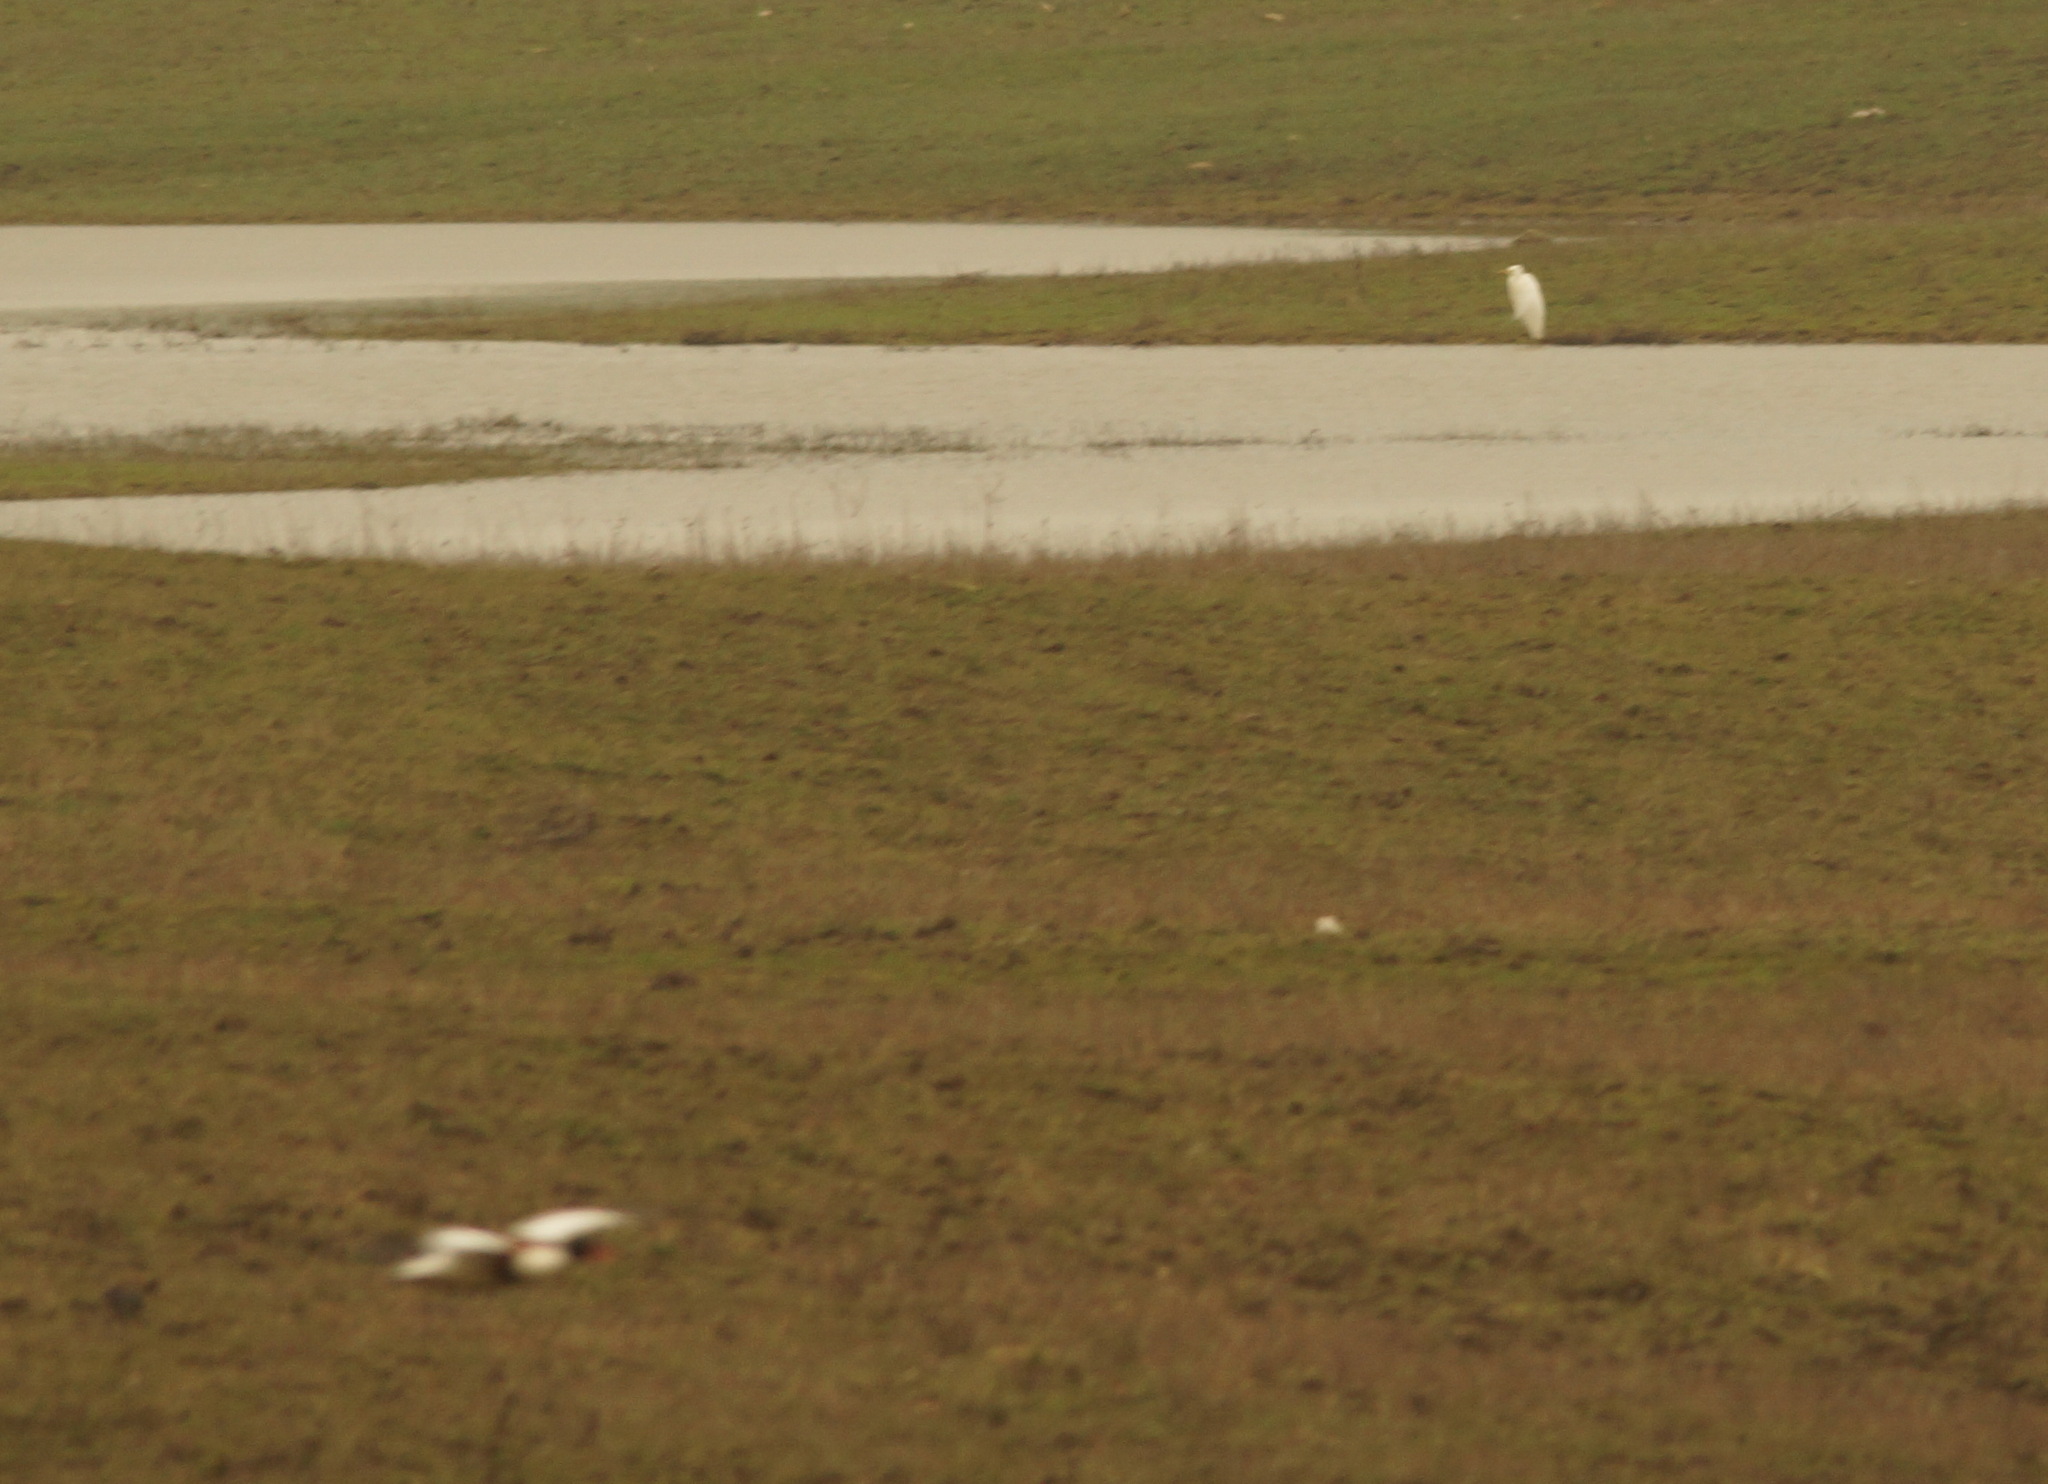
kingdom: Animalia
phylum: Chordata
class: Aves
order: Anseriformes
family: Anatidae
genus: Tadorna
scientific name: Tadorna tadorna
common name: Common shelduck
